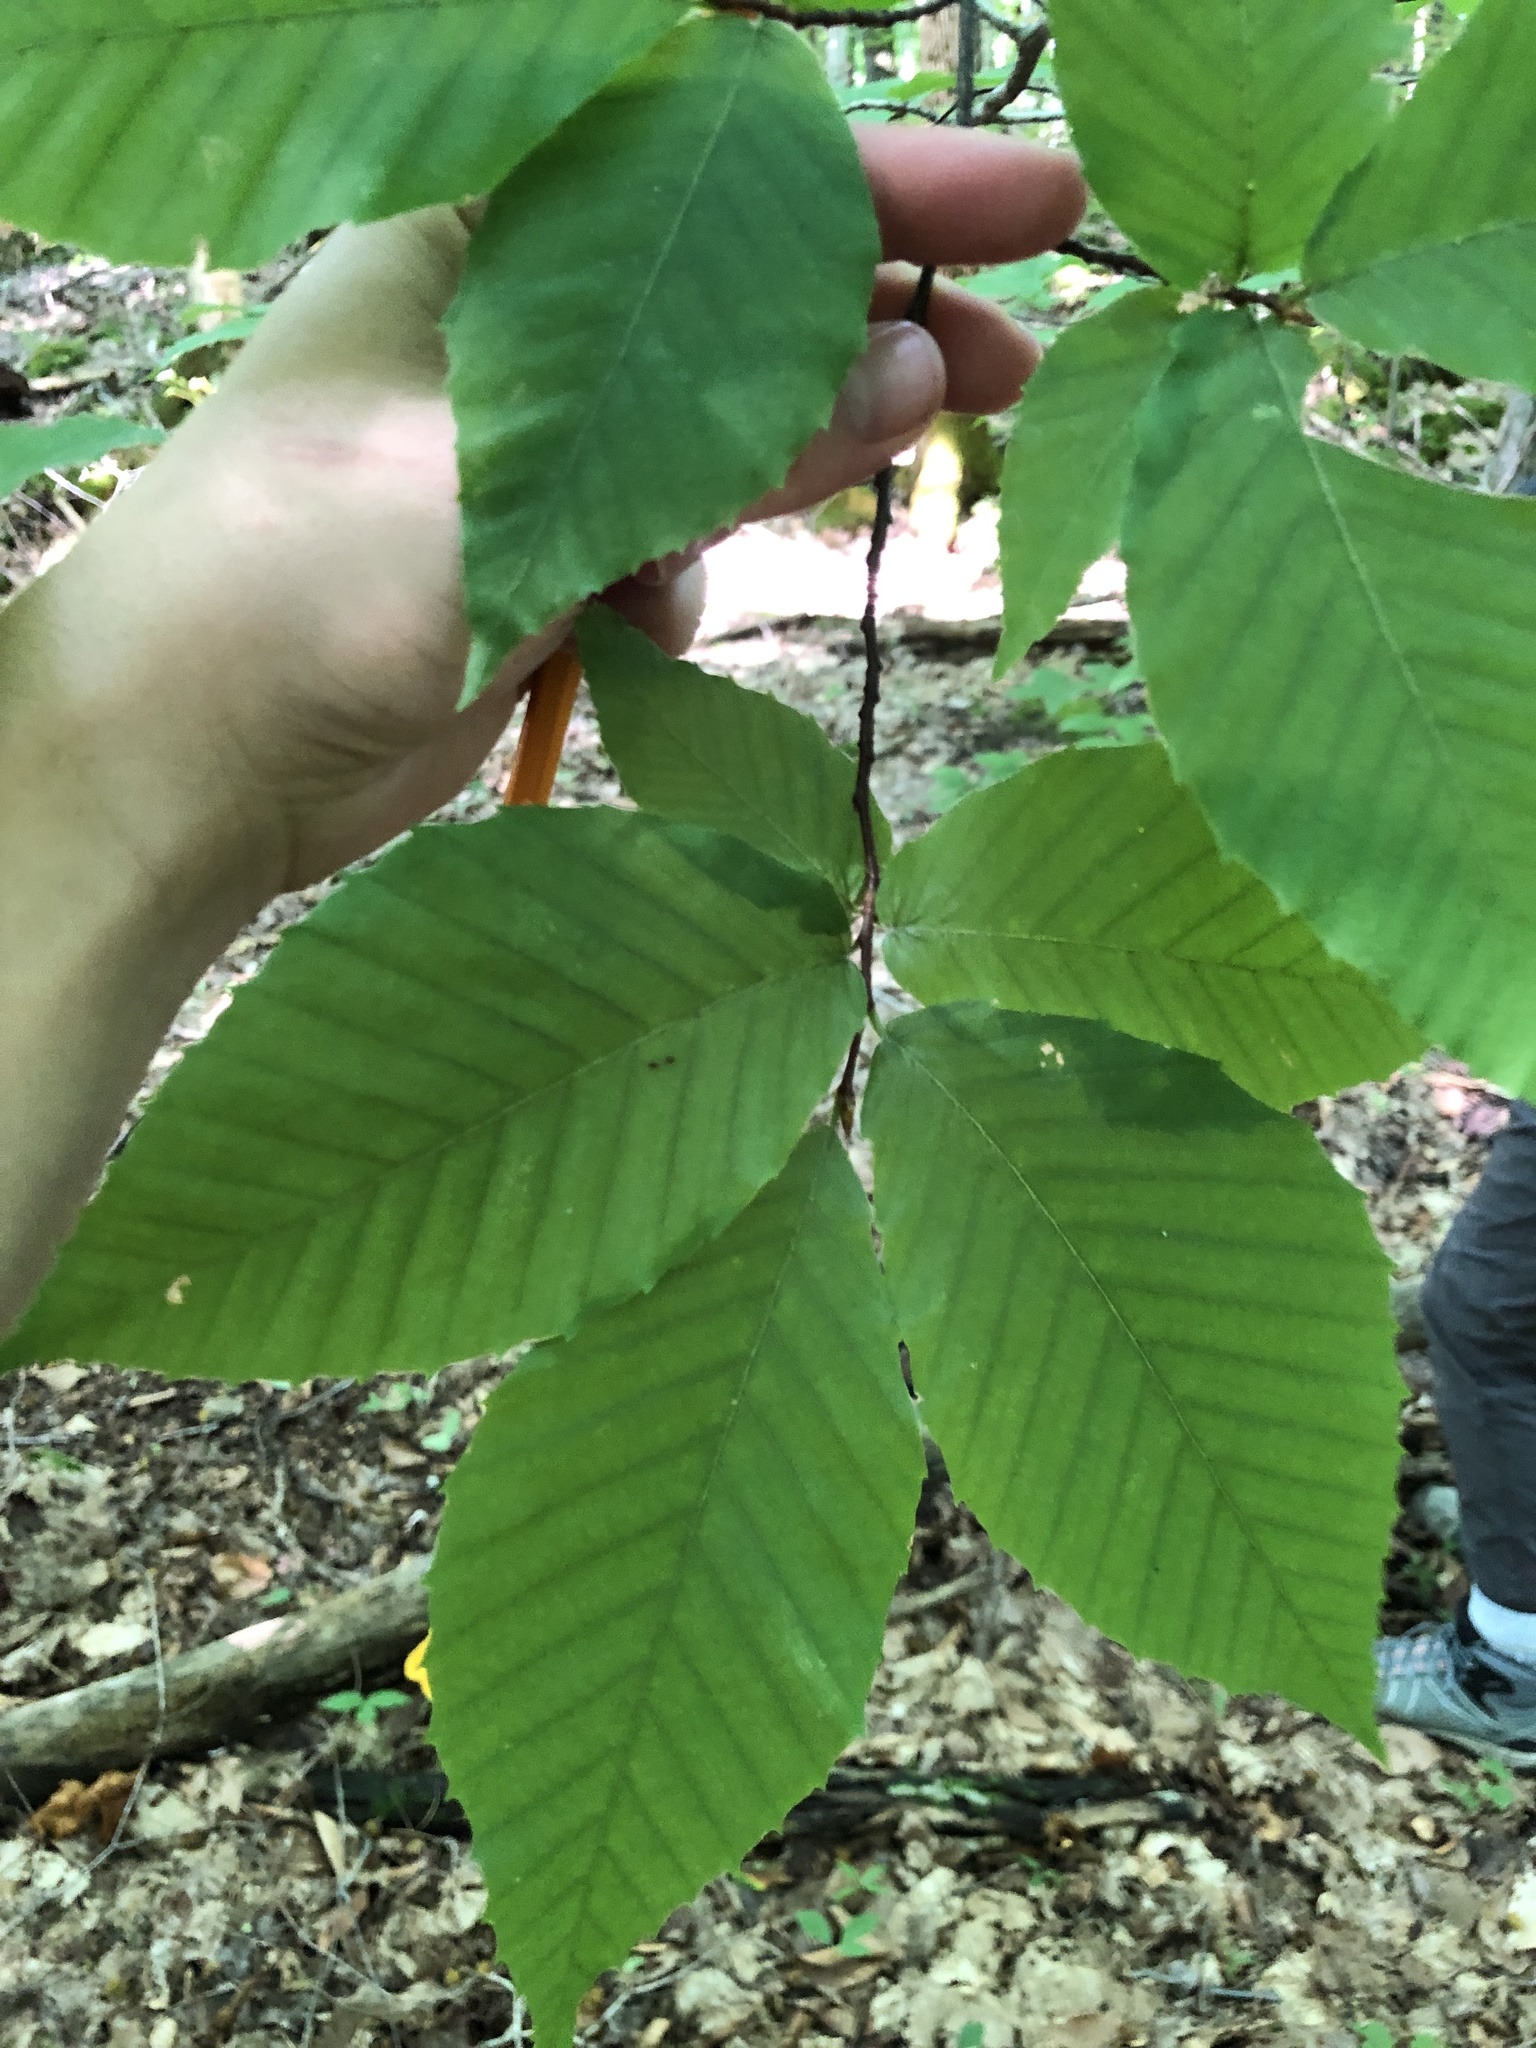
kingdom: Plantae
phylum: Tracheophyta
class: Magnoliopsida
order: Fagales
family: Fagaceae
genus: Fagus
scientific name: Fagus grandifolia
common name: American beech
